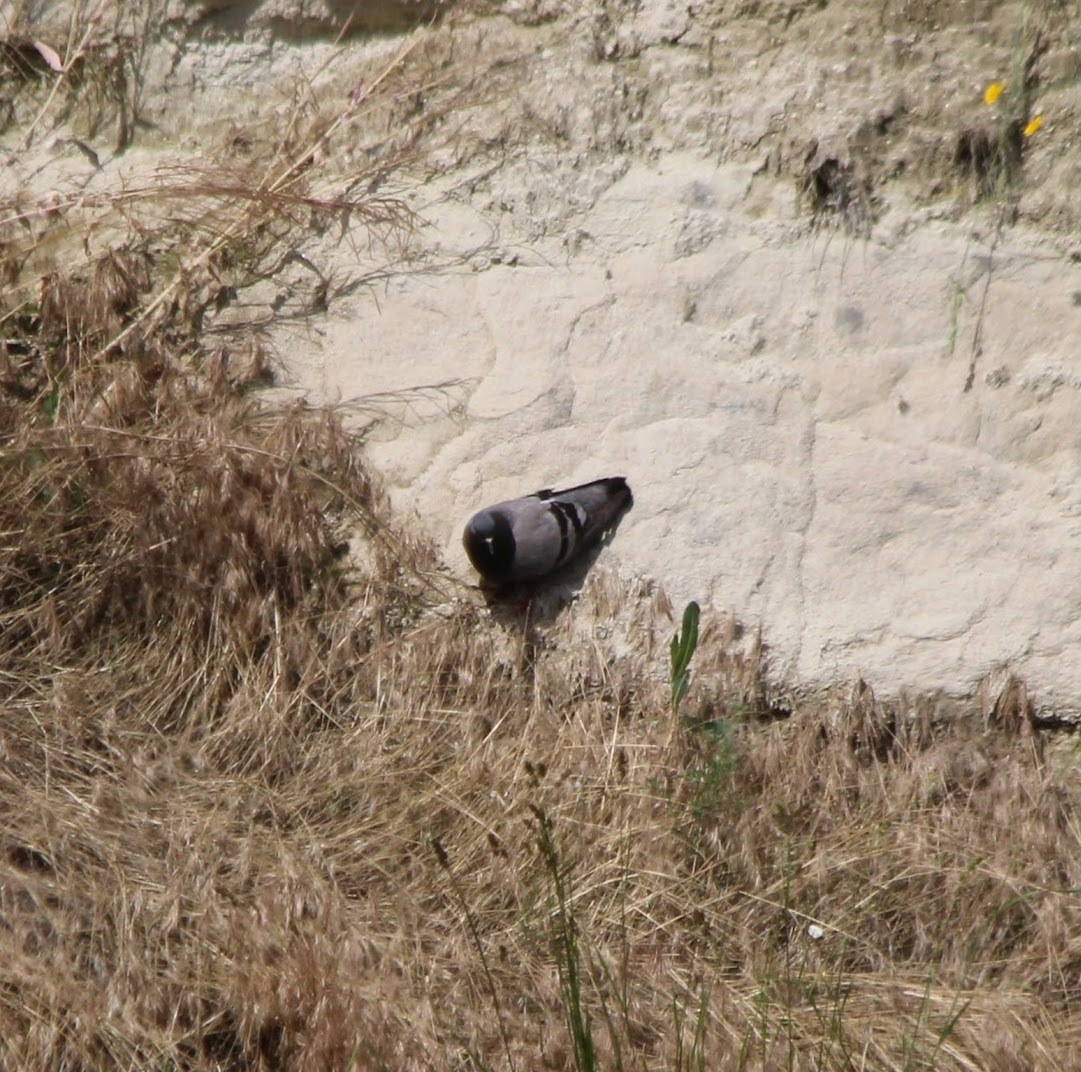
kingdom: Animalia
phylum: Chordata
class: Aves
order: Columbiformes
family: Columbidae
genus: Columba
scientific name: Columba livia
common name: Rock pigeon
